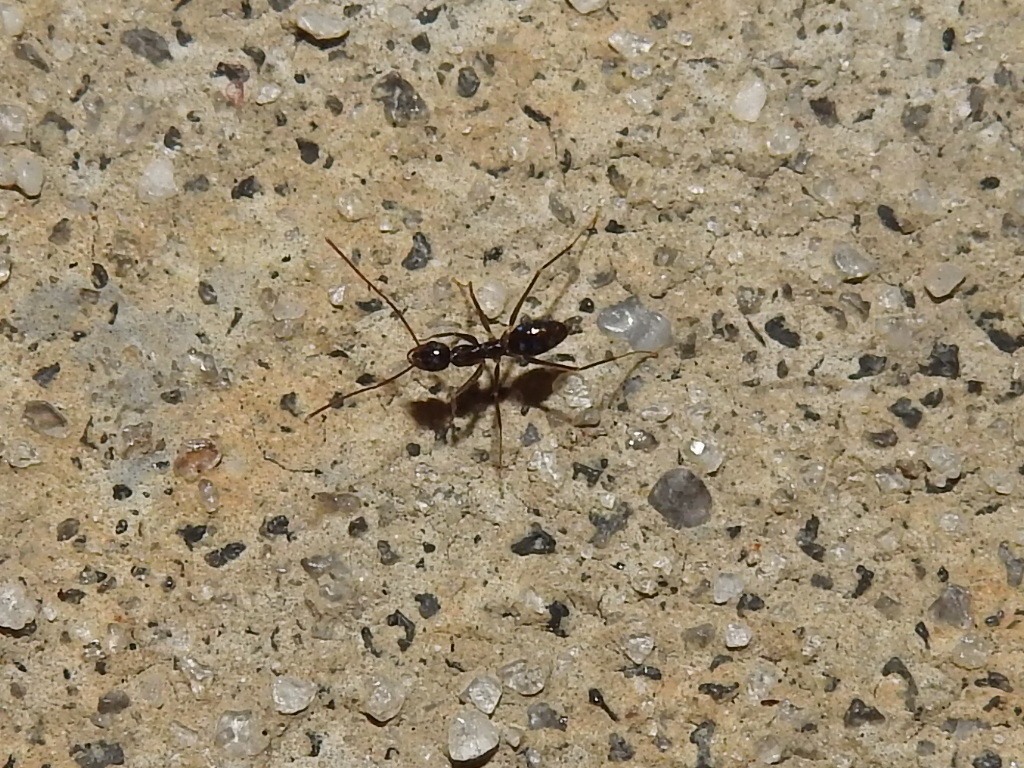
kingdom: Animalia
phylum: Arthropoda
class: Insecta
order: Hymenoptera
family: Formicidae
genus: Paratrechina
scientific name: Paratrechina longicornis
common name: Longhorned crazy ant
